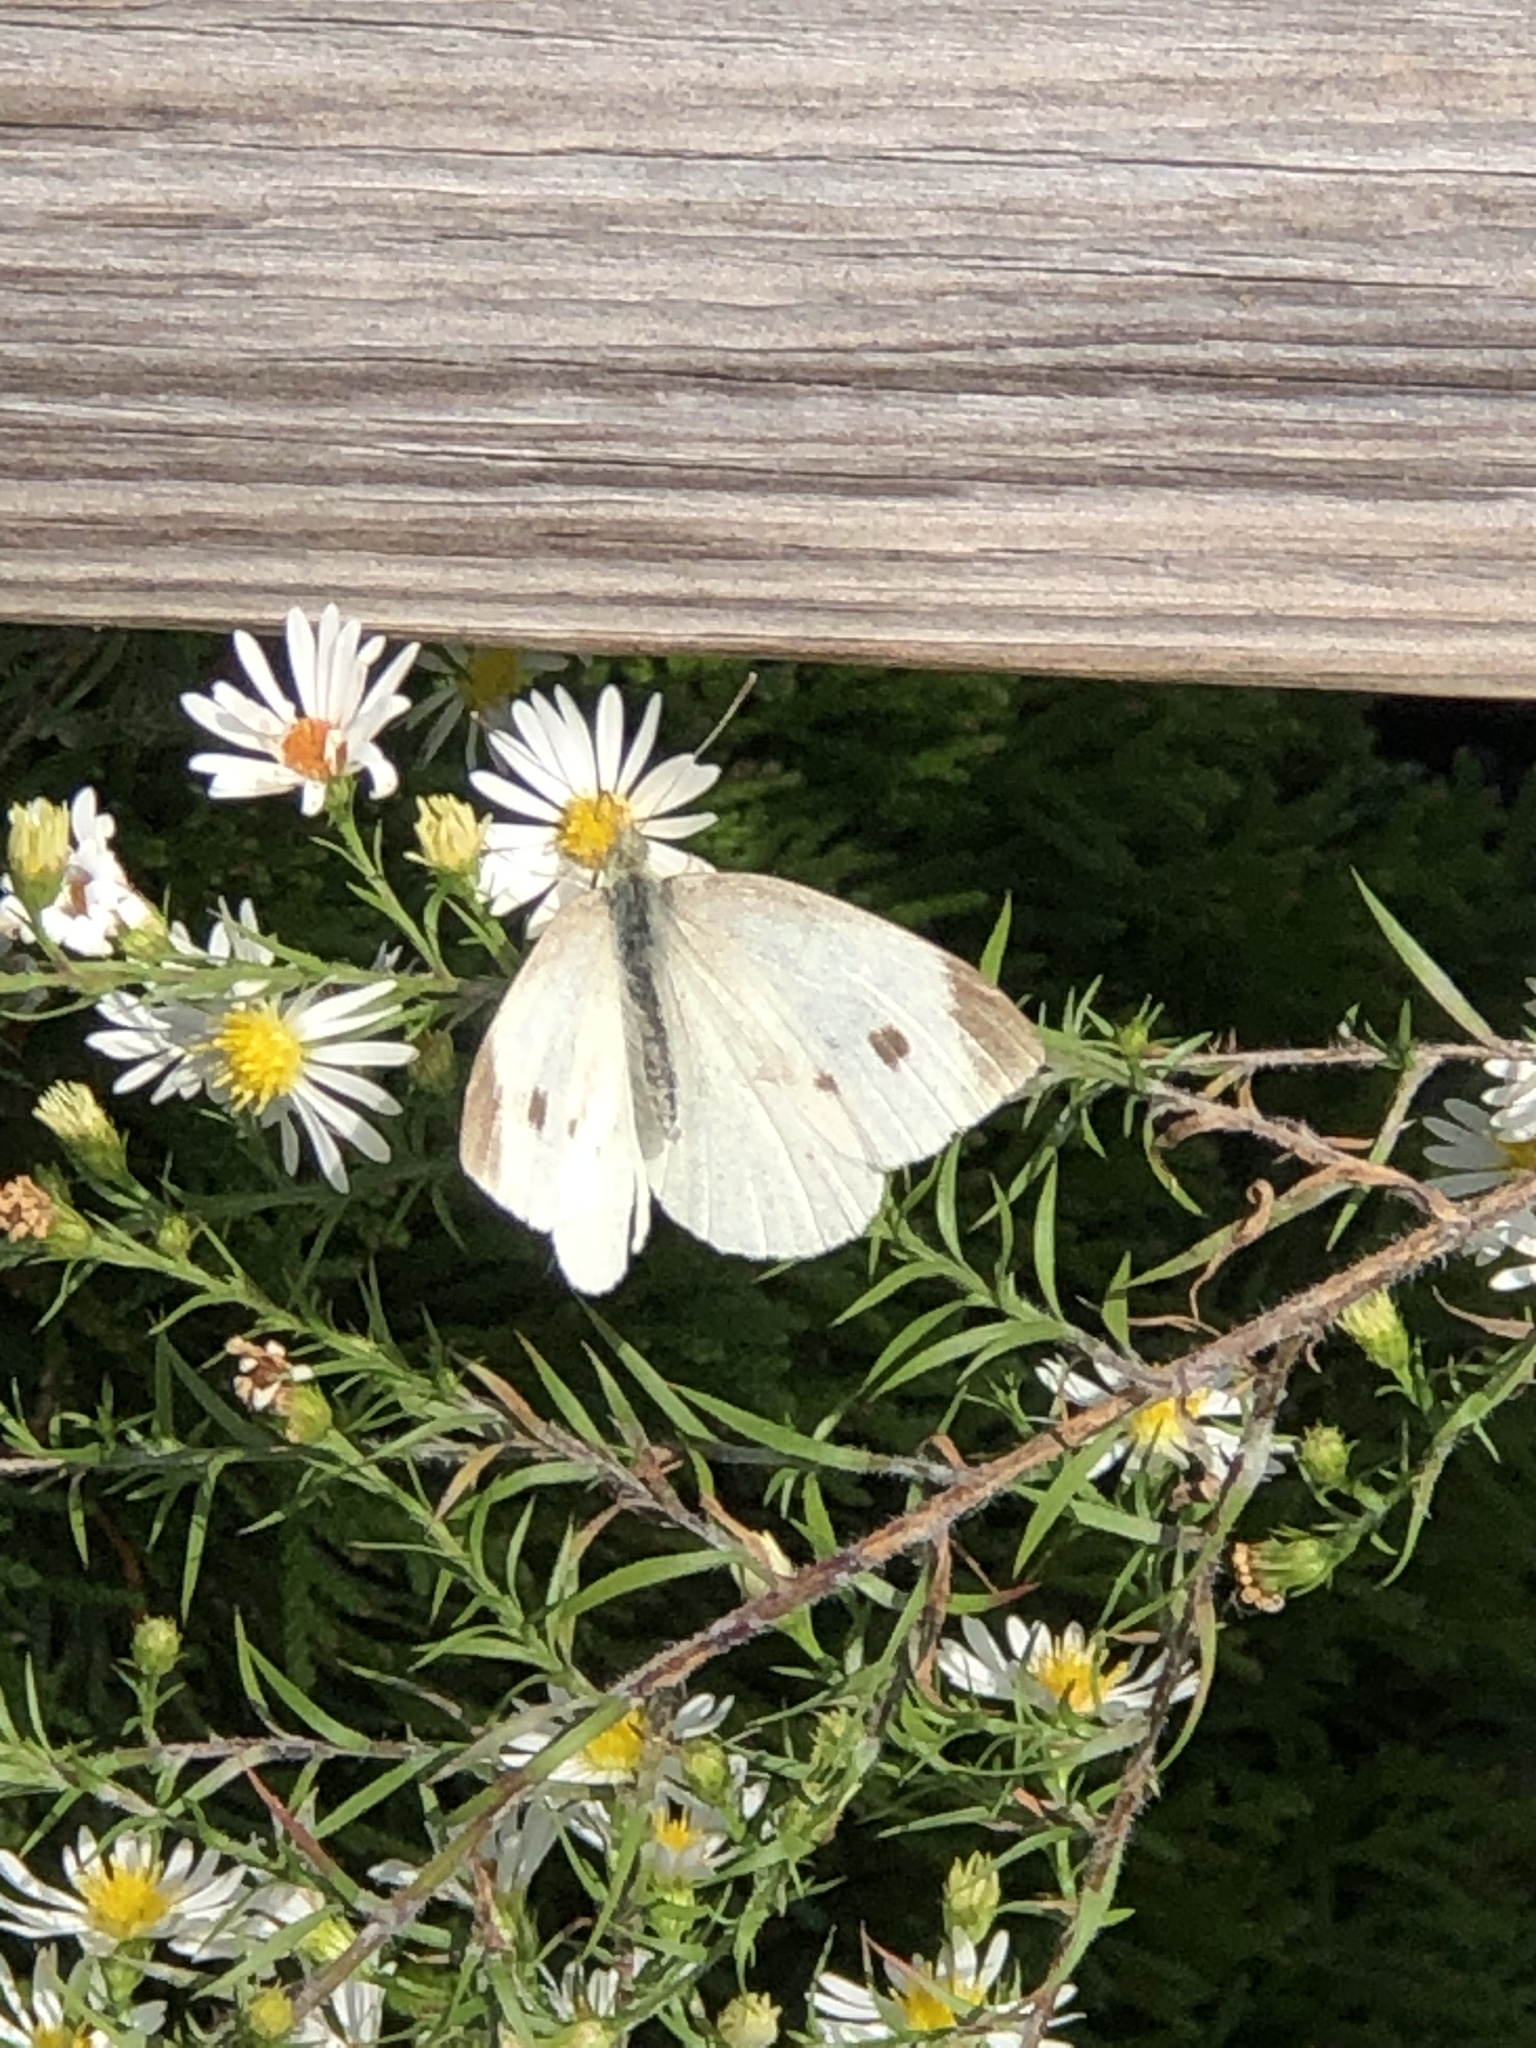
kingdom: Animalia
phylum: Arthropoda
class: Insecta
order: Lepidoptera
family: Pieridae
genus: Pieris
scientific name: Pieris rapae
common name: Small white
